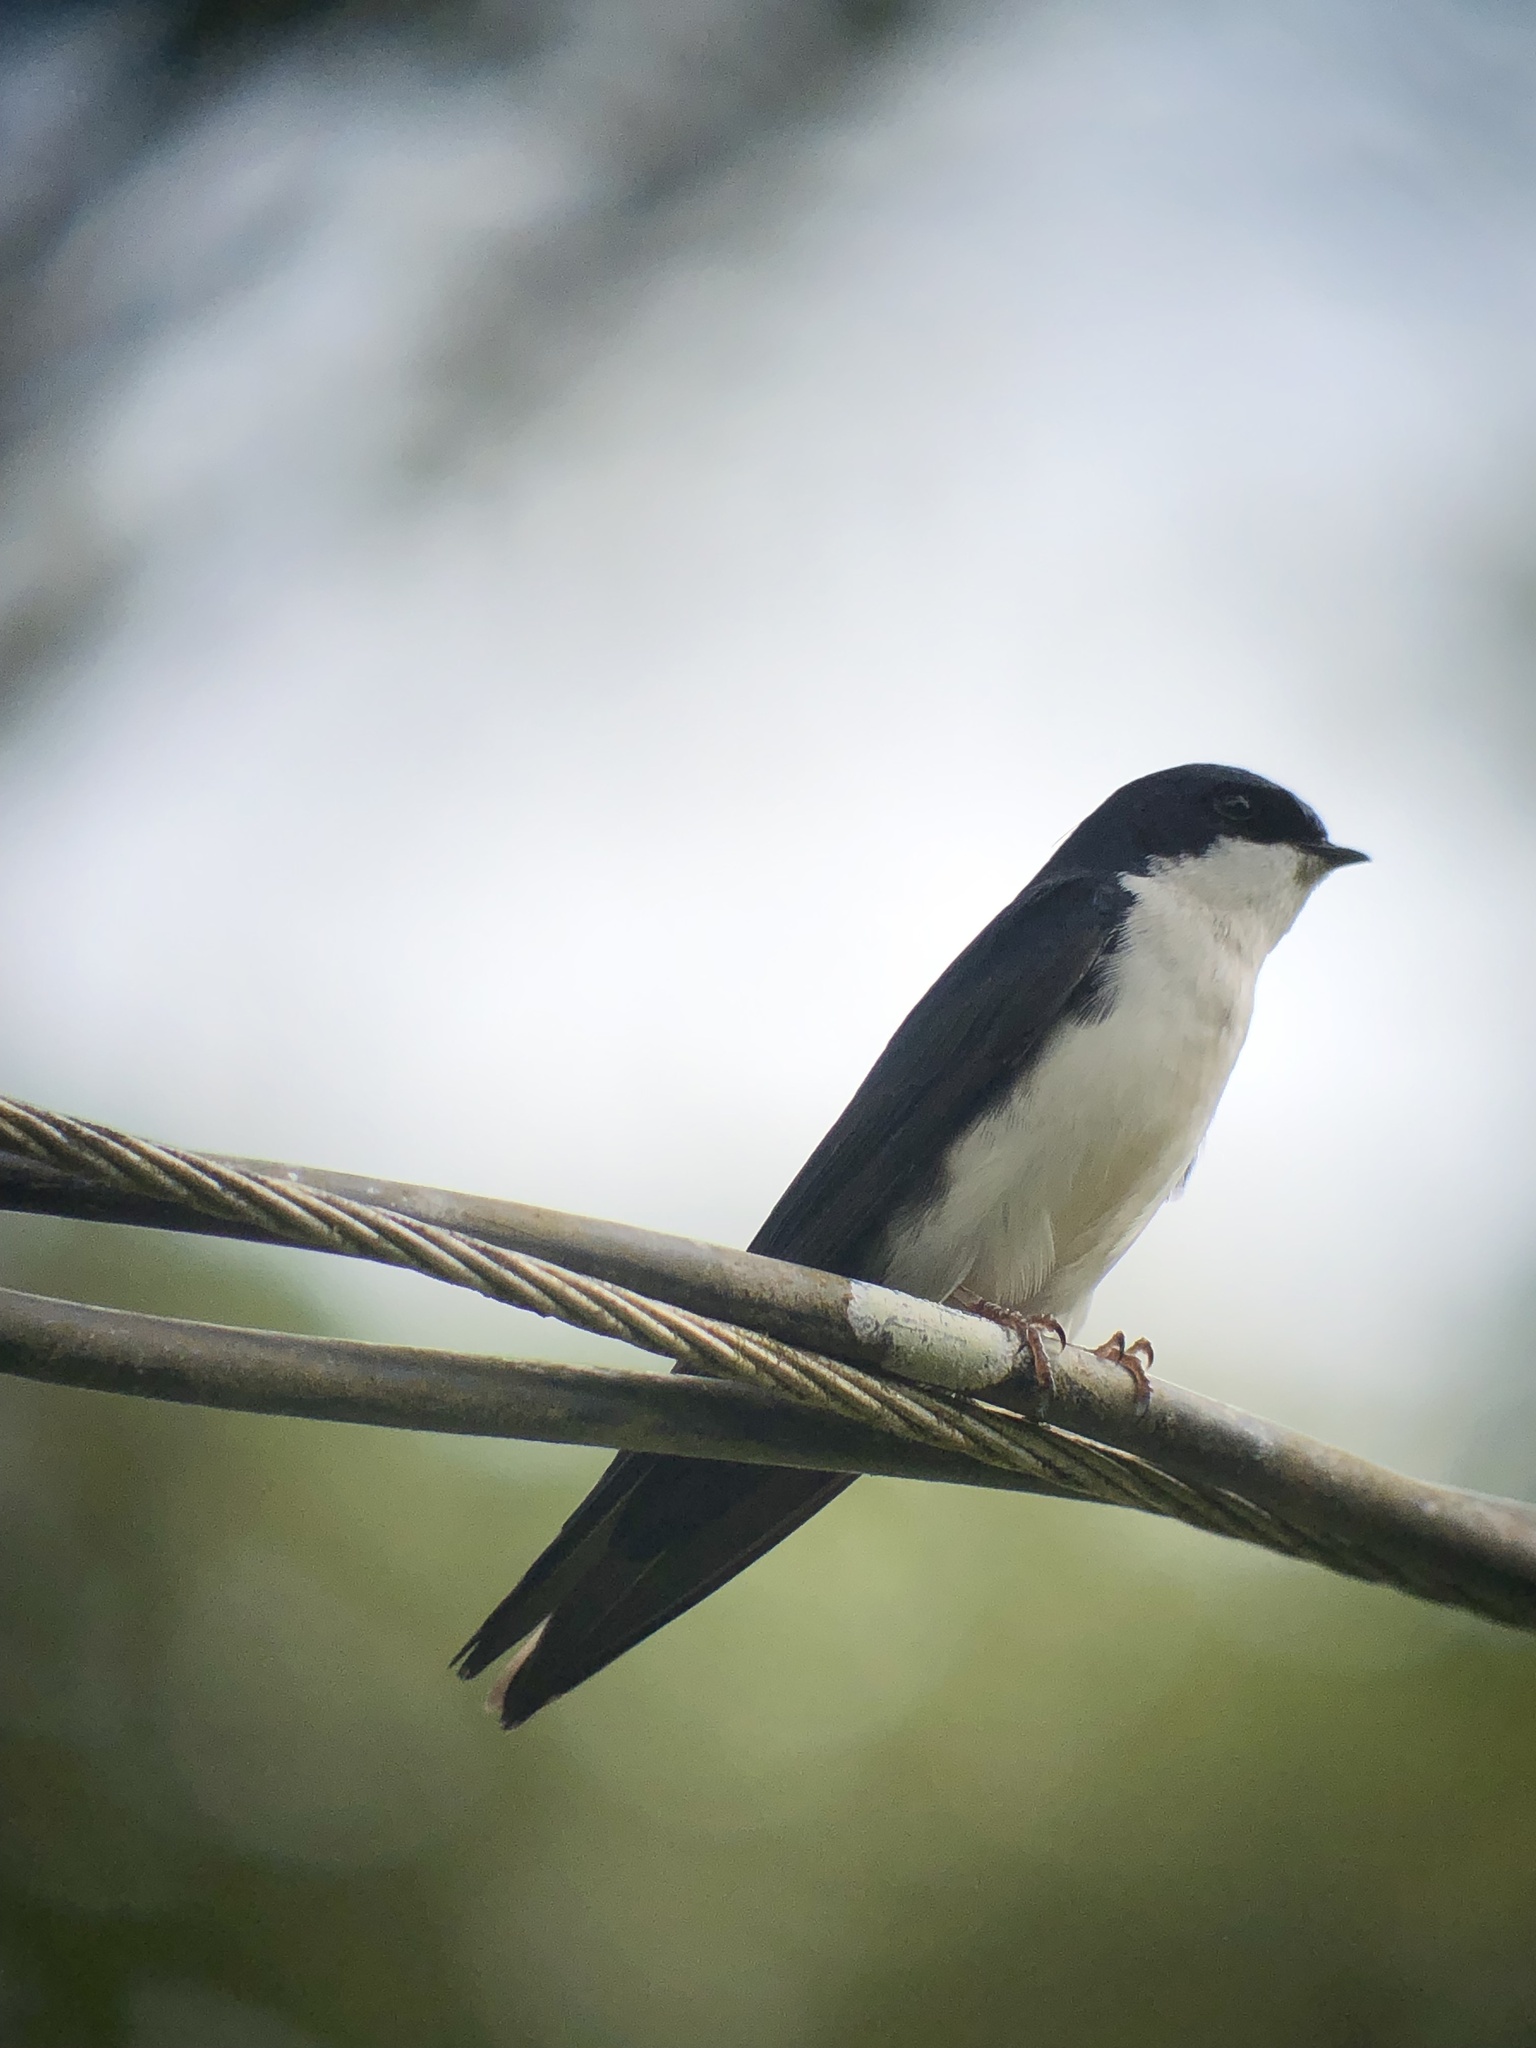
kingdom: Animalia
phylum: Chordata
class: Aves
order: Passeriformes
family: Hirundinidae
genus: Notiochelidon
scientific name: Notiochelidon cyanoleuca
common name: Blue-and-white swallow
